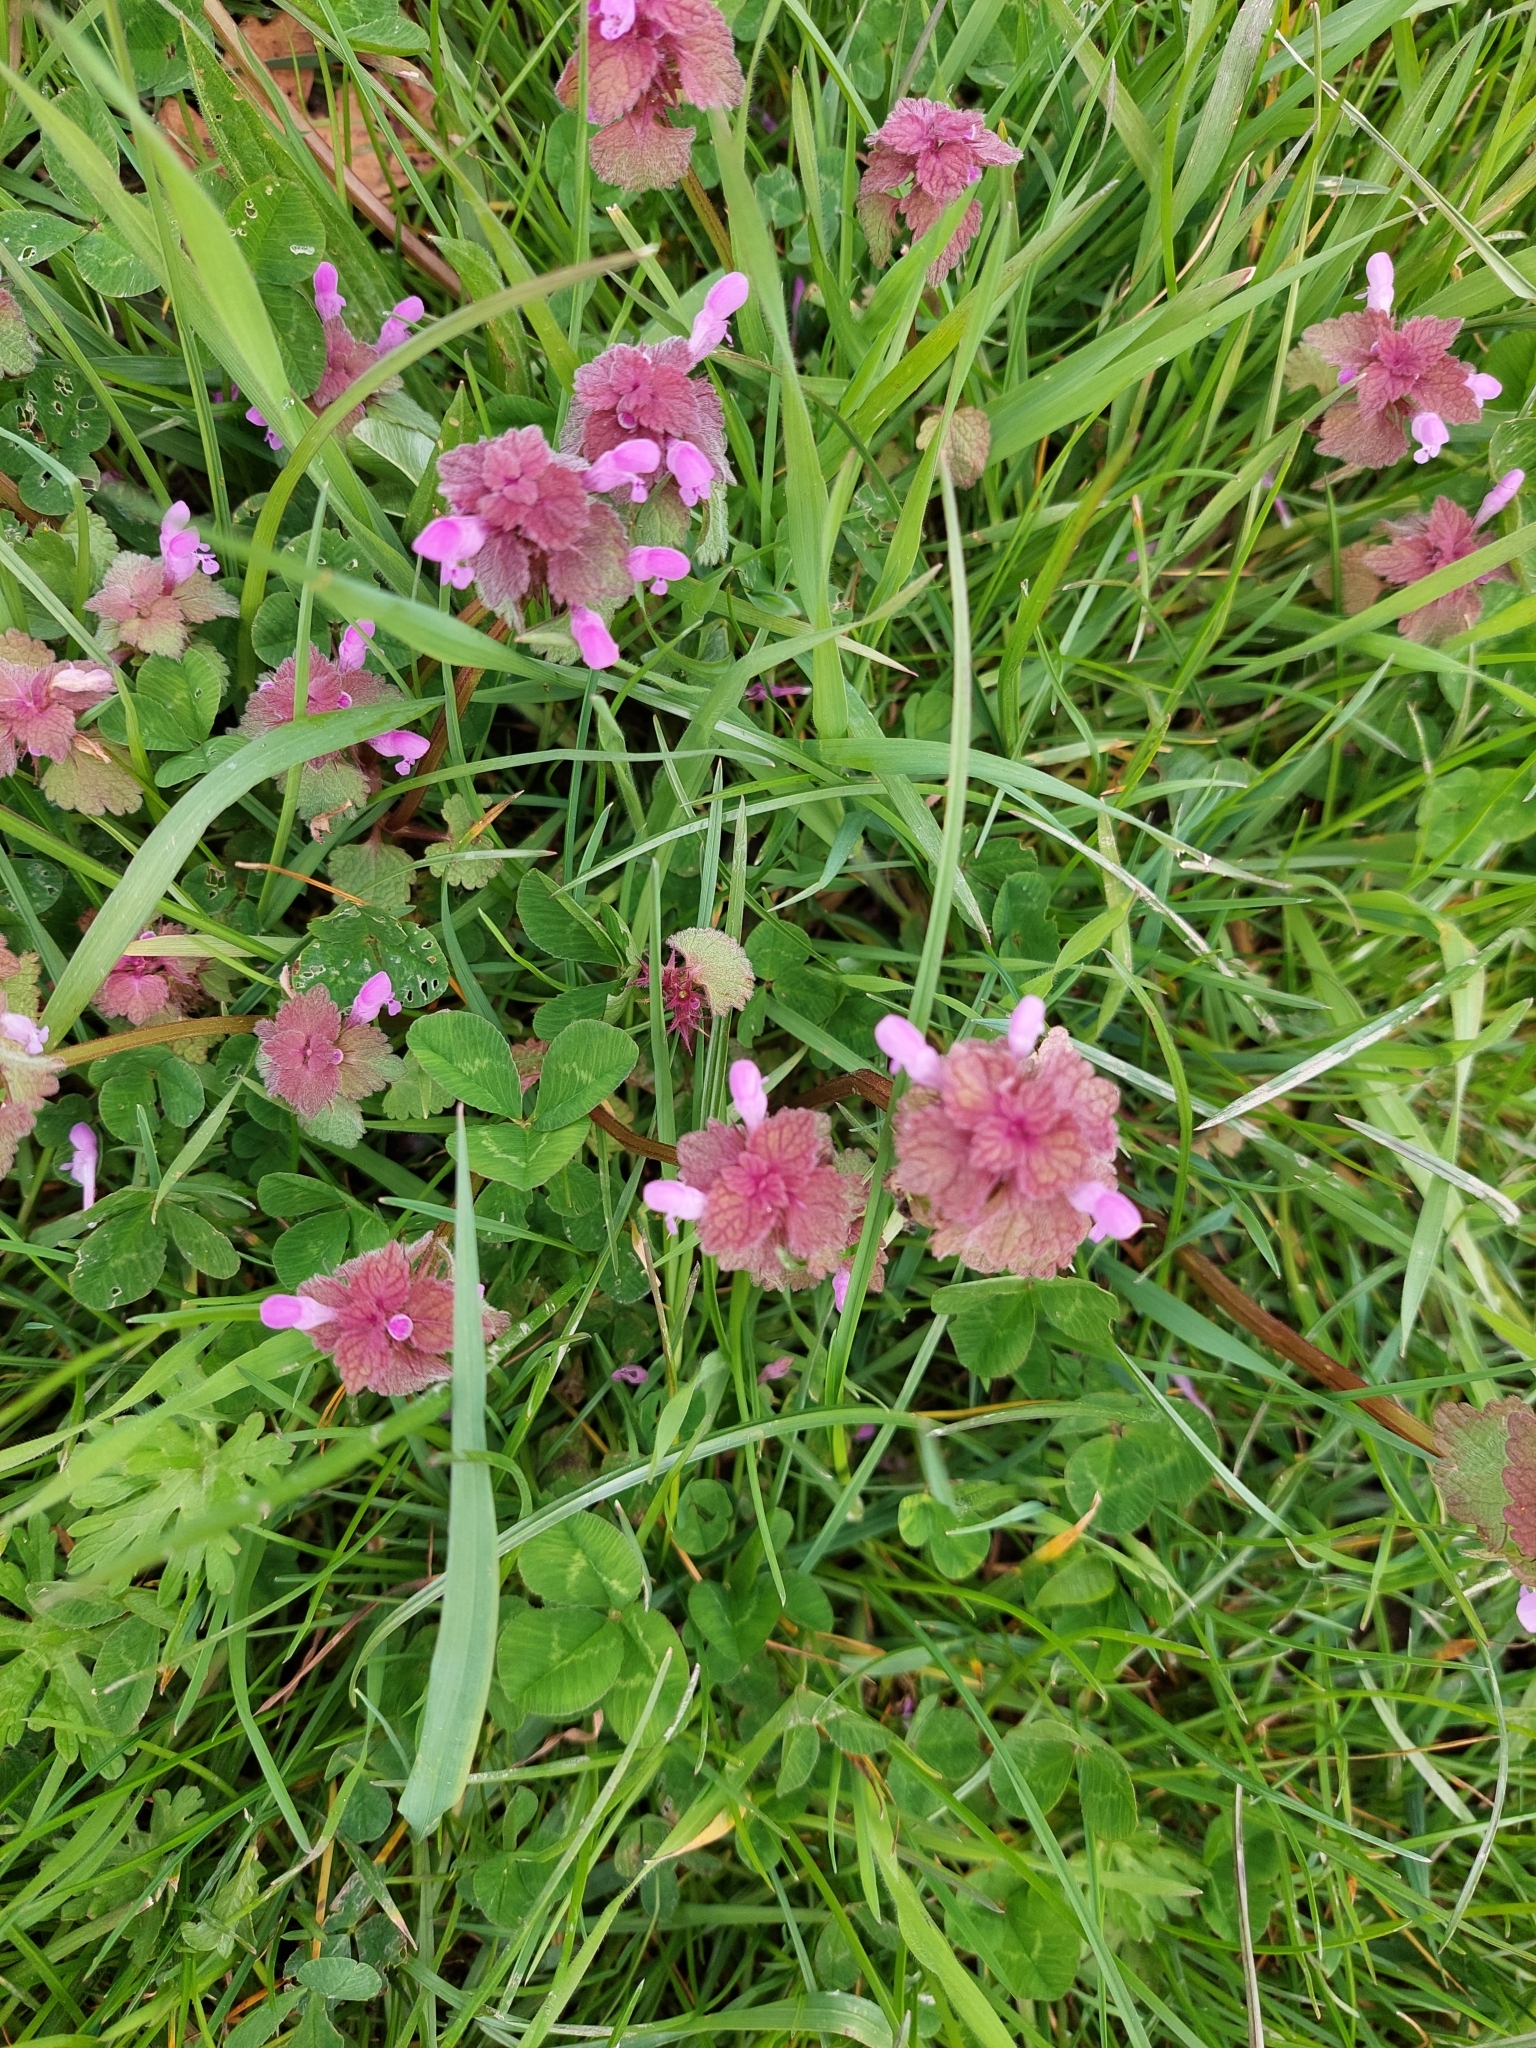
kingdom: Plantae
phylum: Tracheophyta
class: Magnoliopsida
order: Lamiales
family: Lamiaceae
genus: Lamium
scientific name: Lamium purpureum
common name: Red dead-nettle
